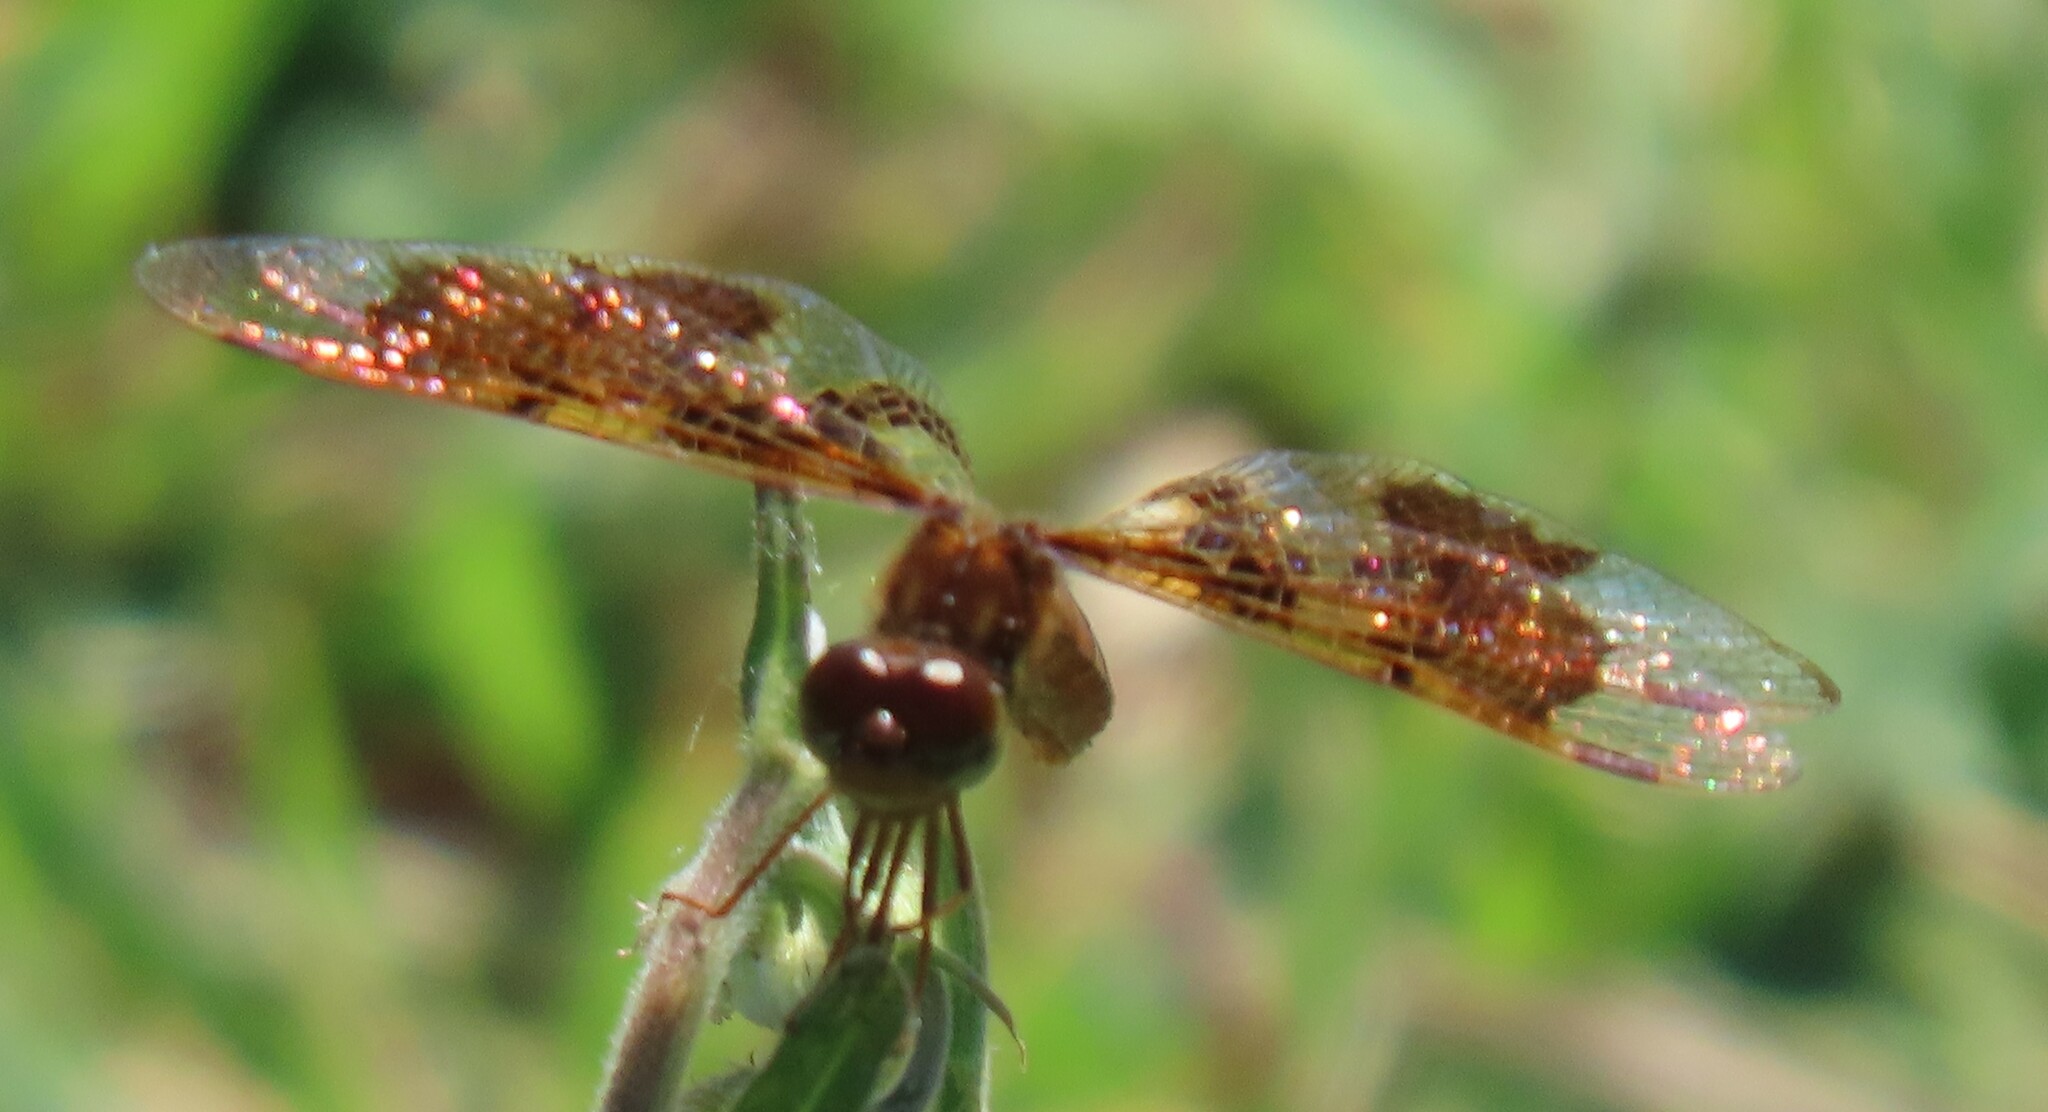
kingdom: Animalia
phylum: Arthropoda
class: Insecta
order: Odonata
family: Libellulidae
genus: Perithemis
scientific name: Perithemis tenera
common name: Eastern amberwing
